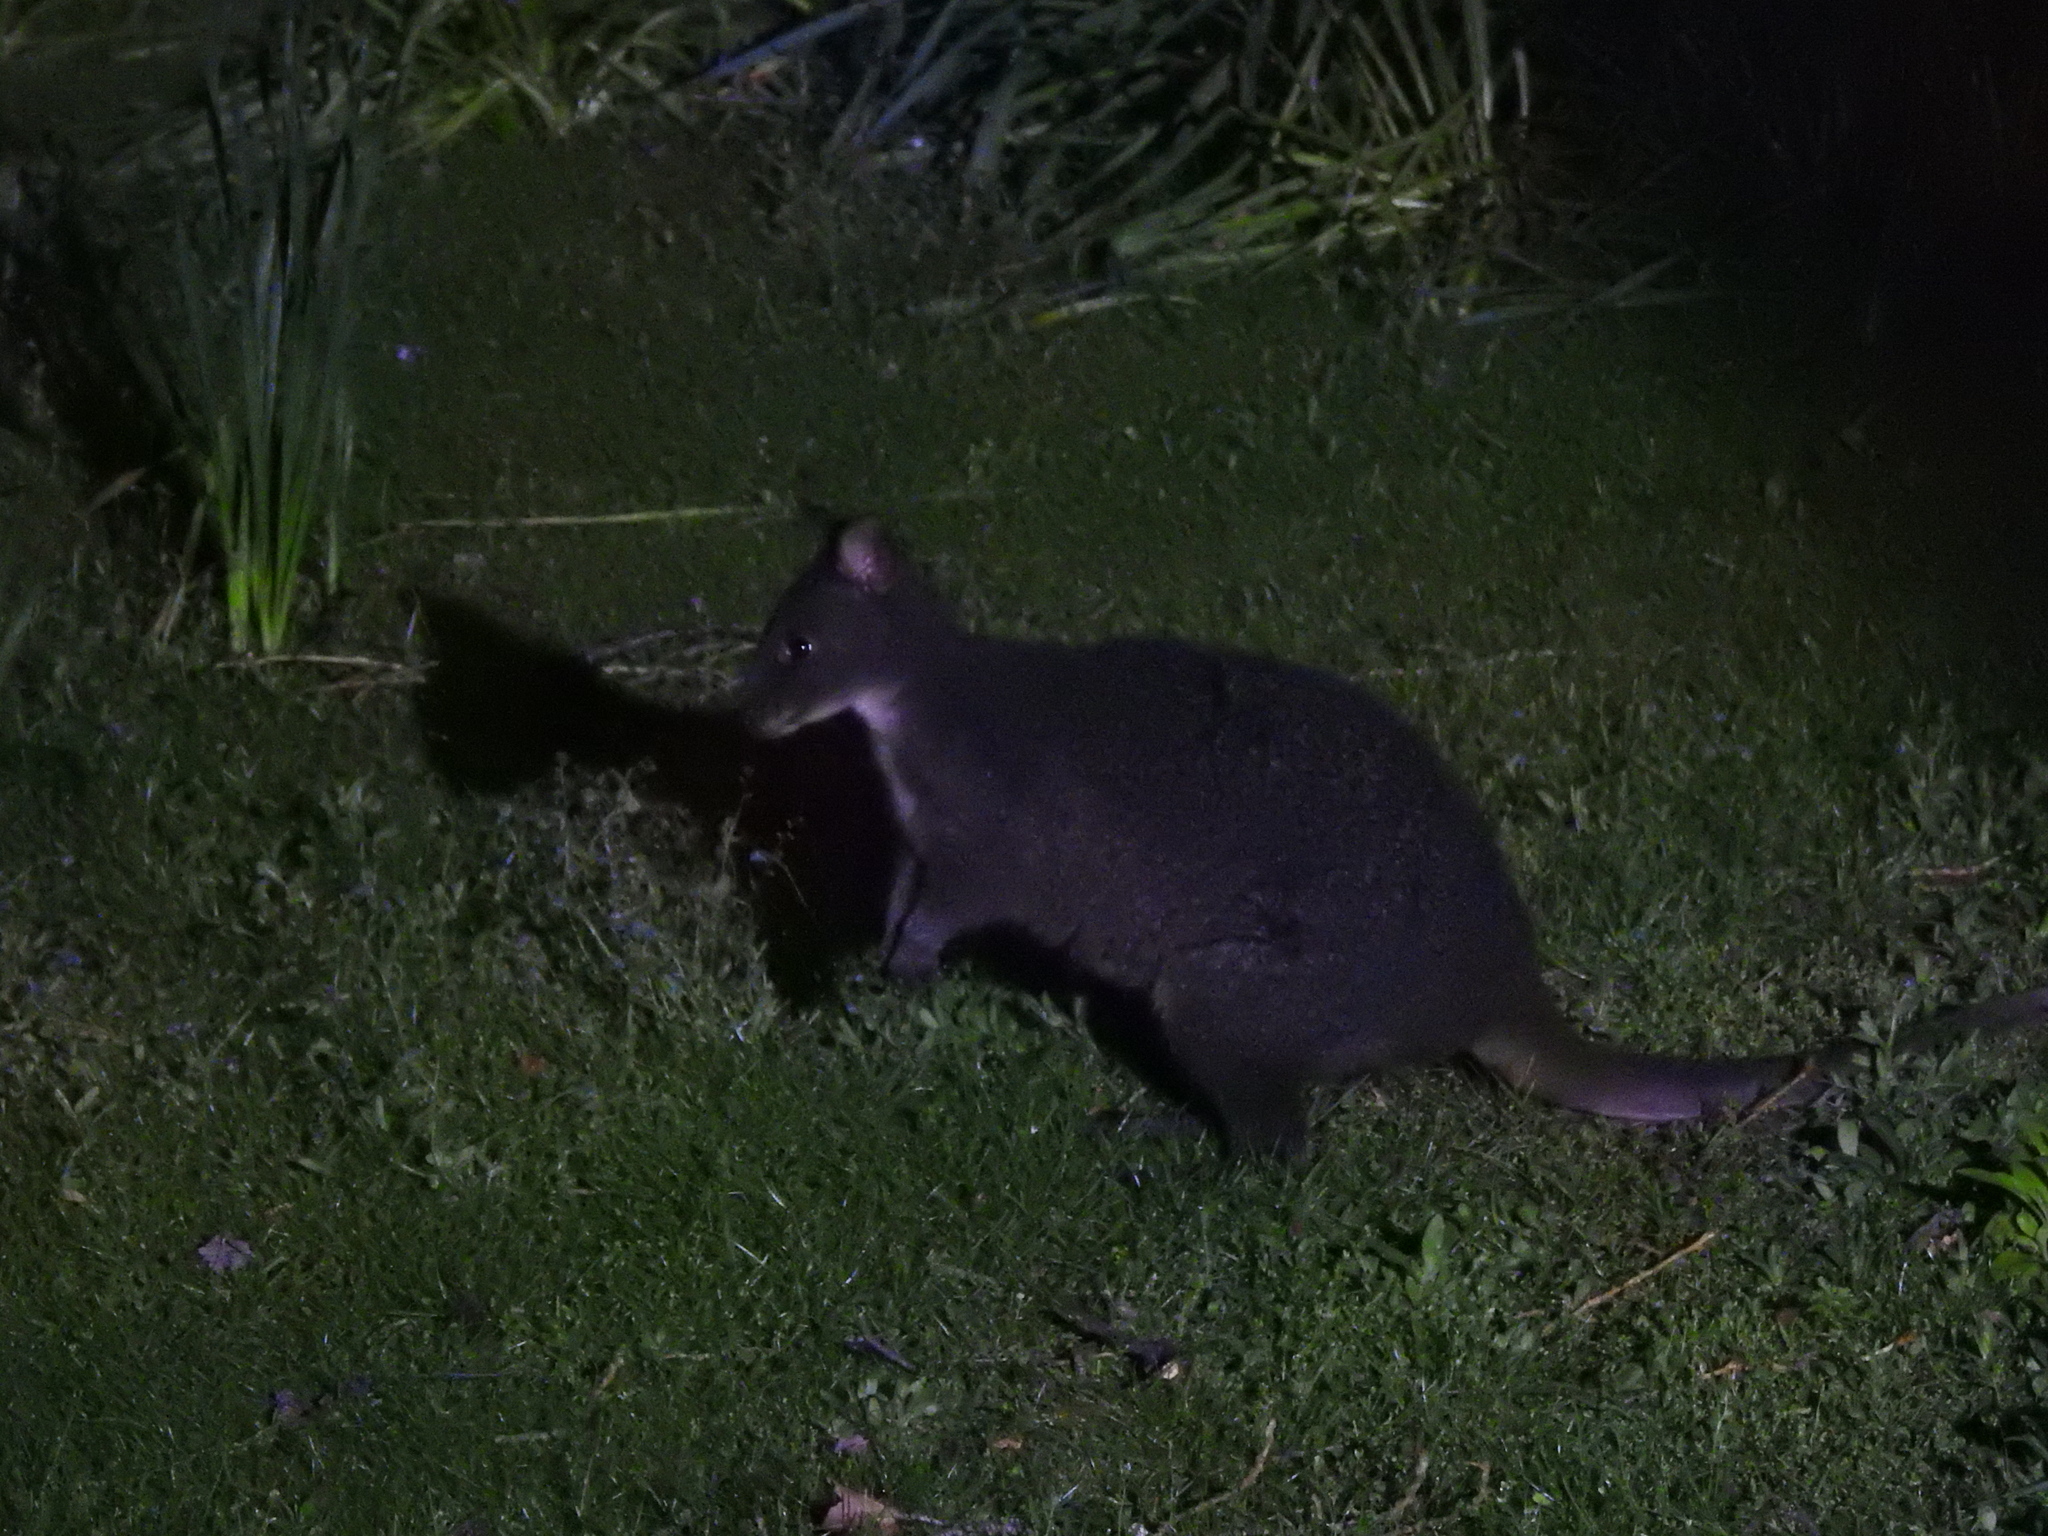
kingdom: Animalia
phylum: Chordata
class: Mammalia
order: Diprotodontia
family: Macropodidae
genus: Thylogale
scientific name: Thylogale billardierii
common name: Tasmanian pademelon
